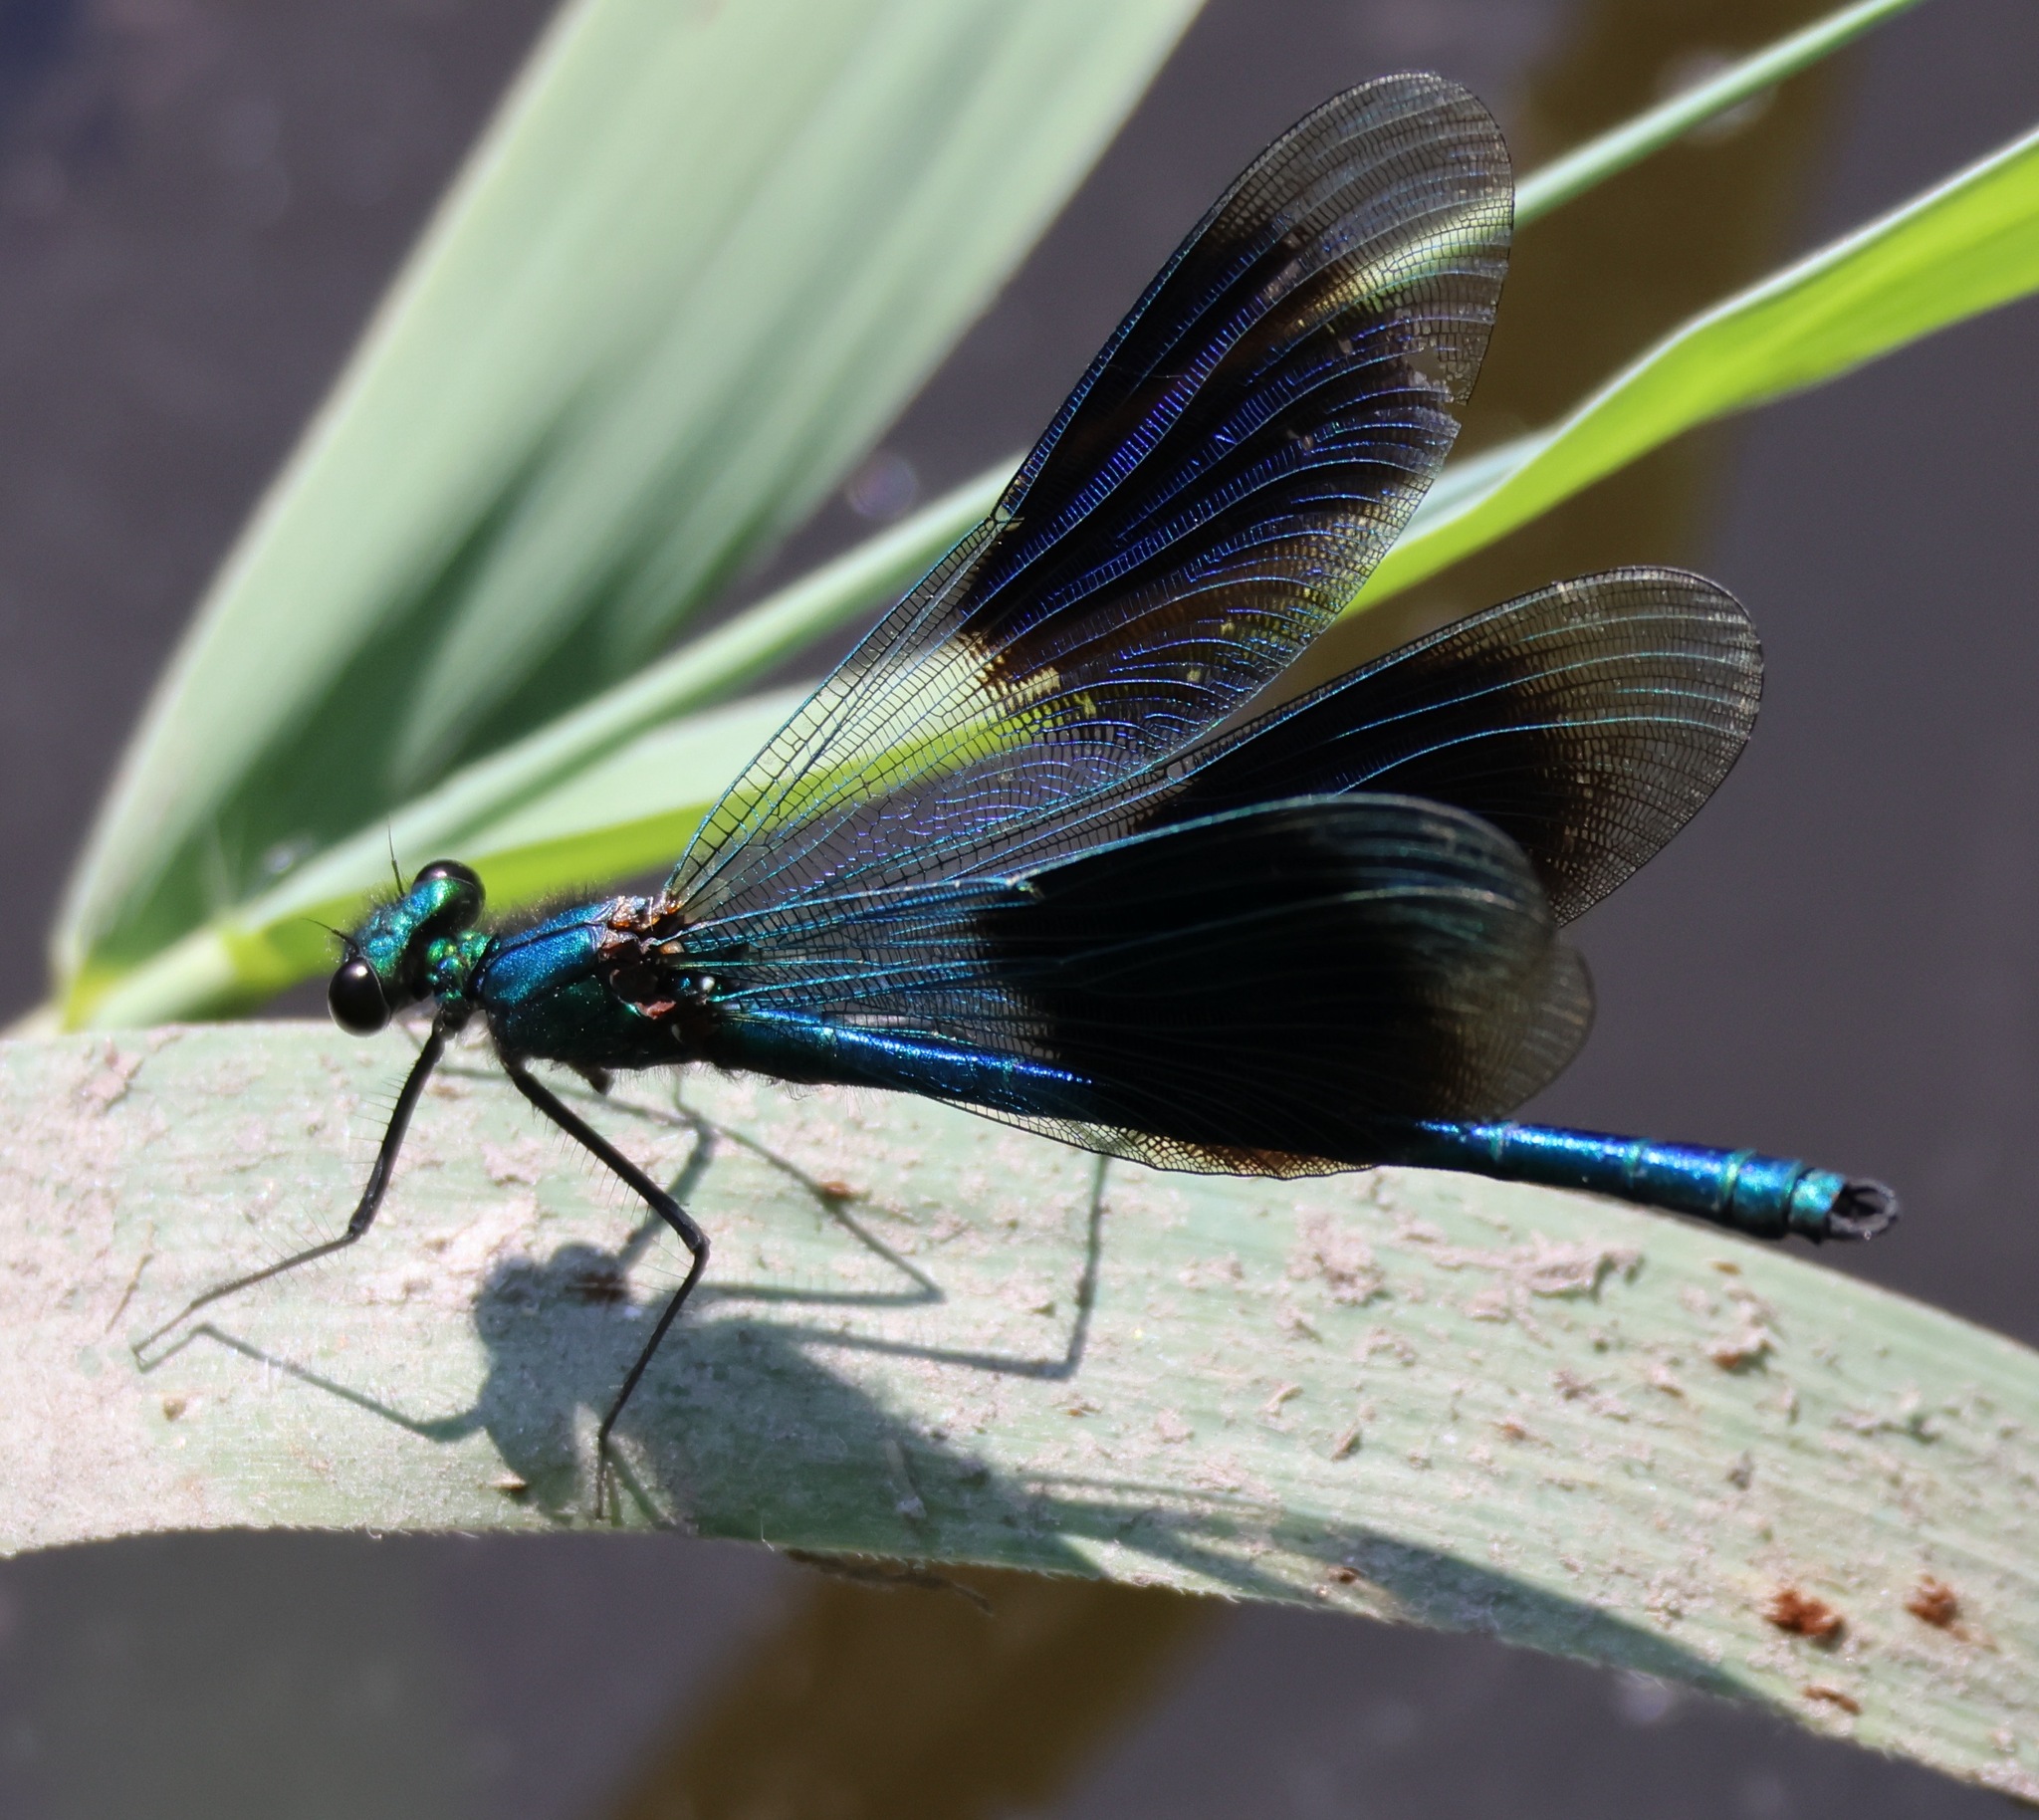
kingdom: Animalia
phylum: Arthropoda
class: Insecta
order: Odonata
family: Calopterygidae
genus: Calopteryx
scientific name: Calopteryx splendens
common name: Banded demoiselle
